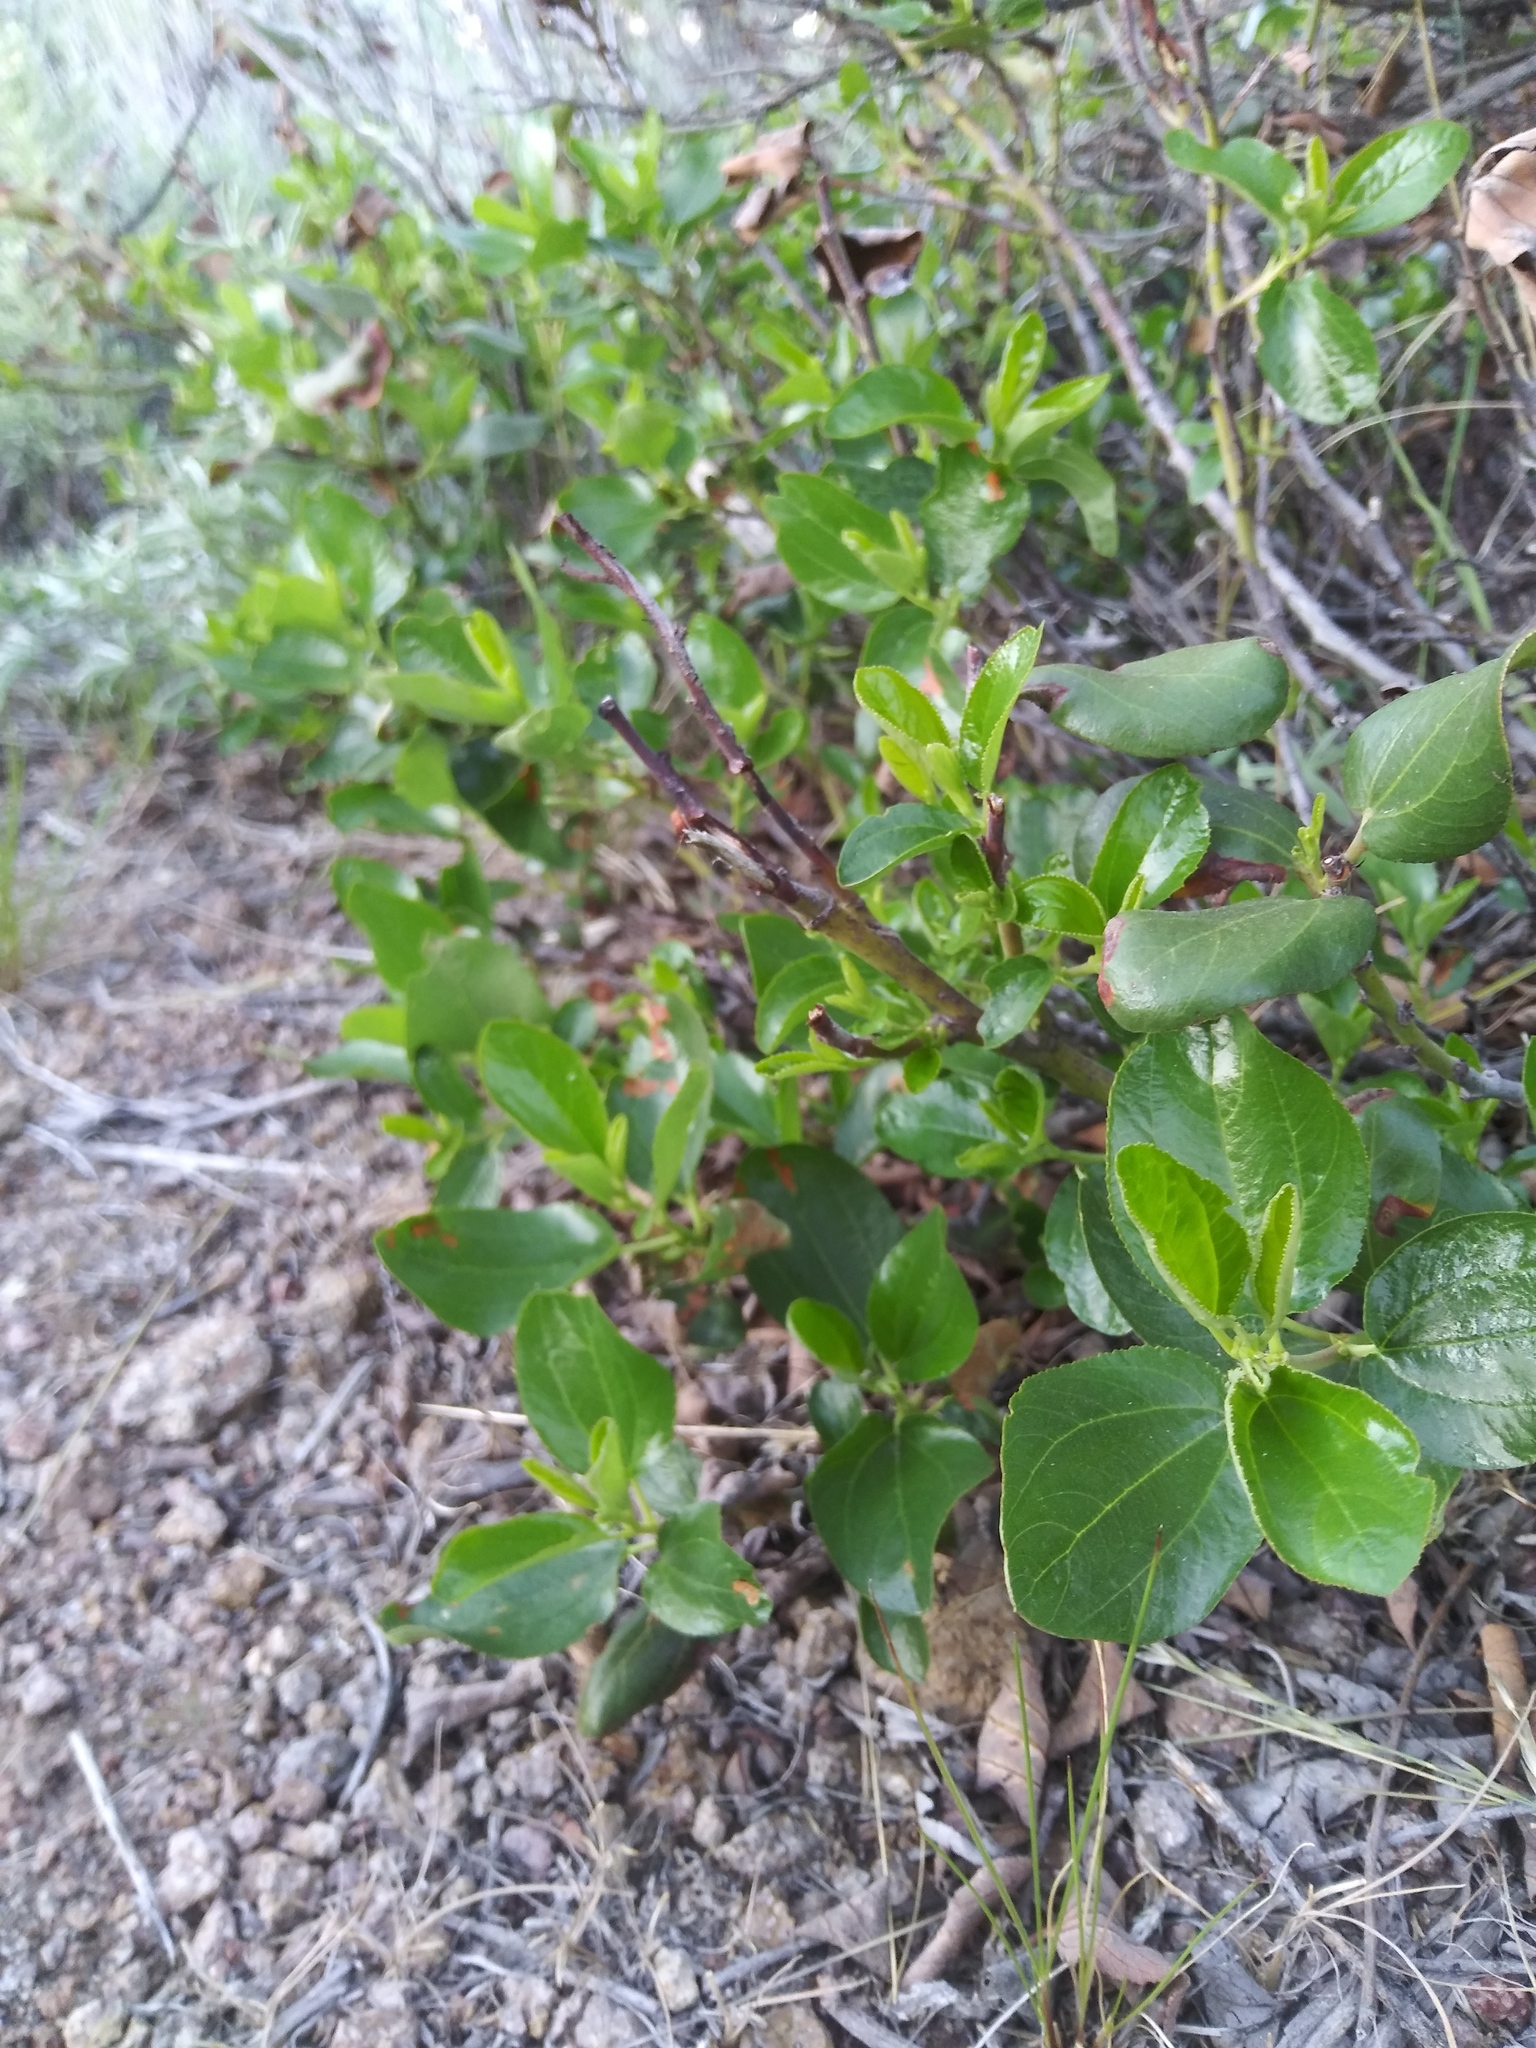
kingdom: Plantae
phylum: Tracheophyta
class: Magnoliopsida
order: Rosales
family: Rhamnaceae
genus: Ceanothus
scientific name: Ceanothus velutinus
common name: Snowbrush
